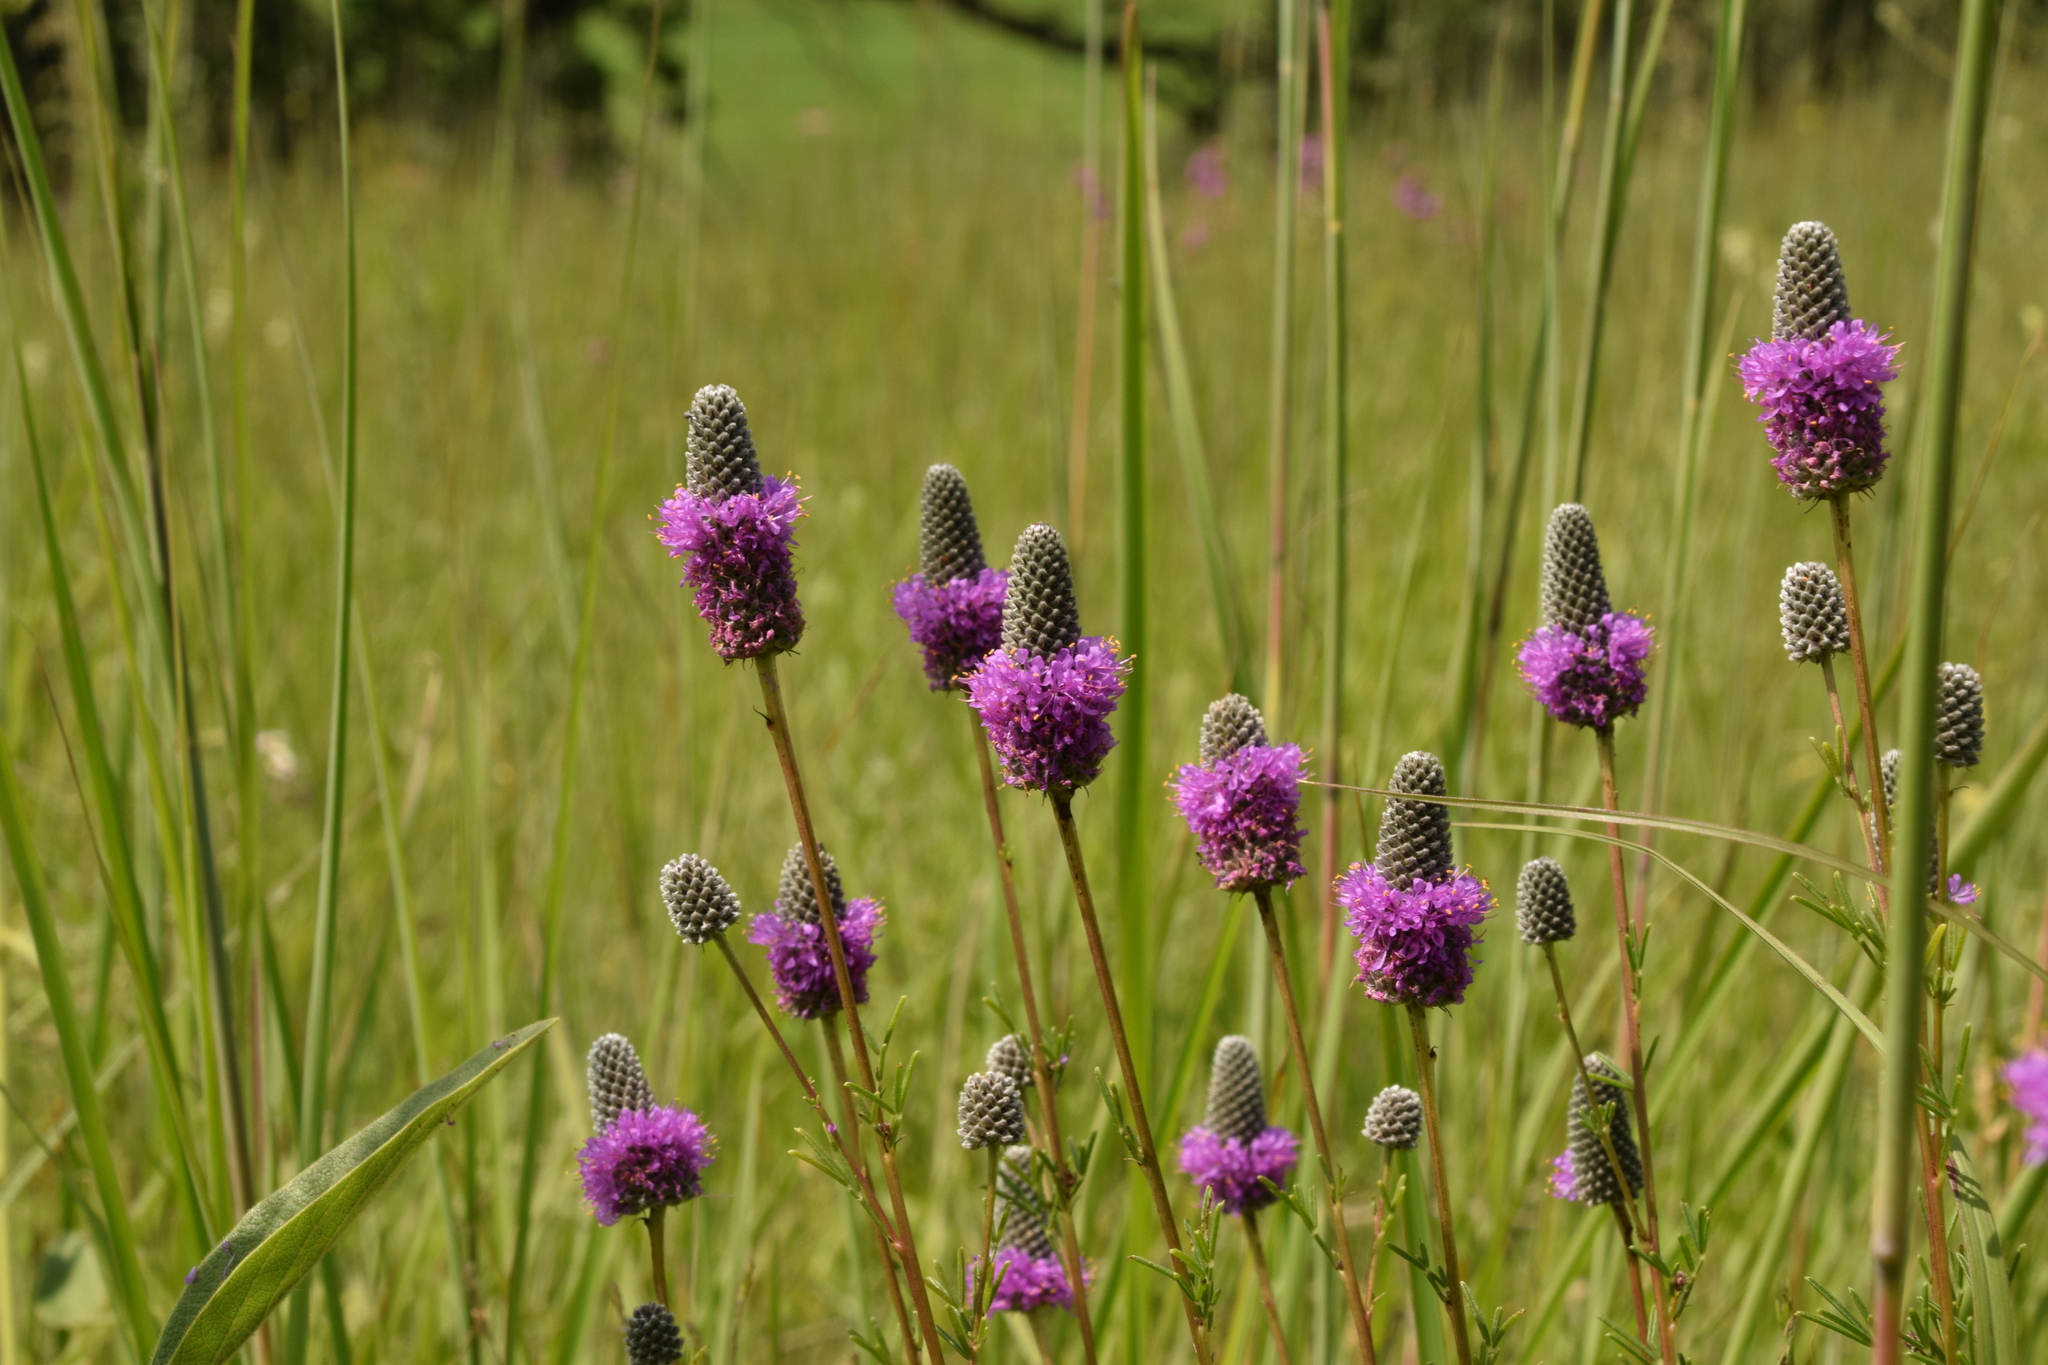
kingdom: Plantae
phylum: Tracheophyta
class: Magnoliopsida
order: Fabales
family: Fabaceae
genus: Dalea
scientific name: Dalea purpurea
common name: Purple prairie-clover
